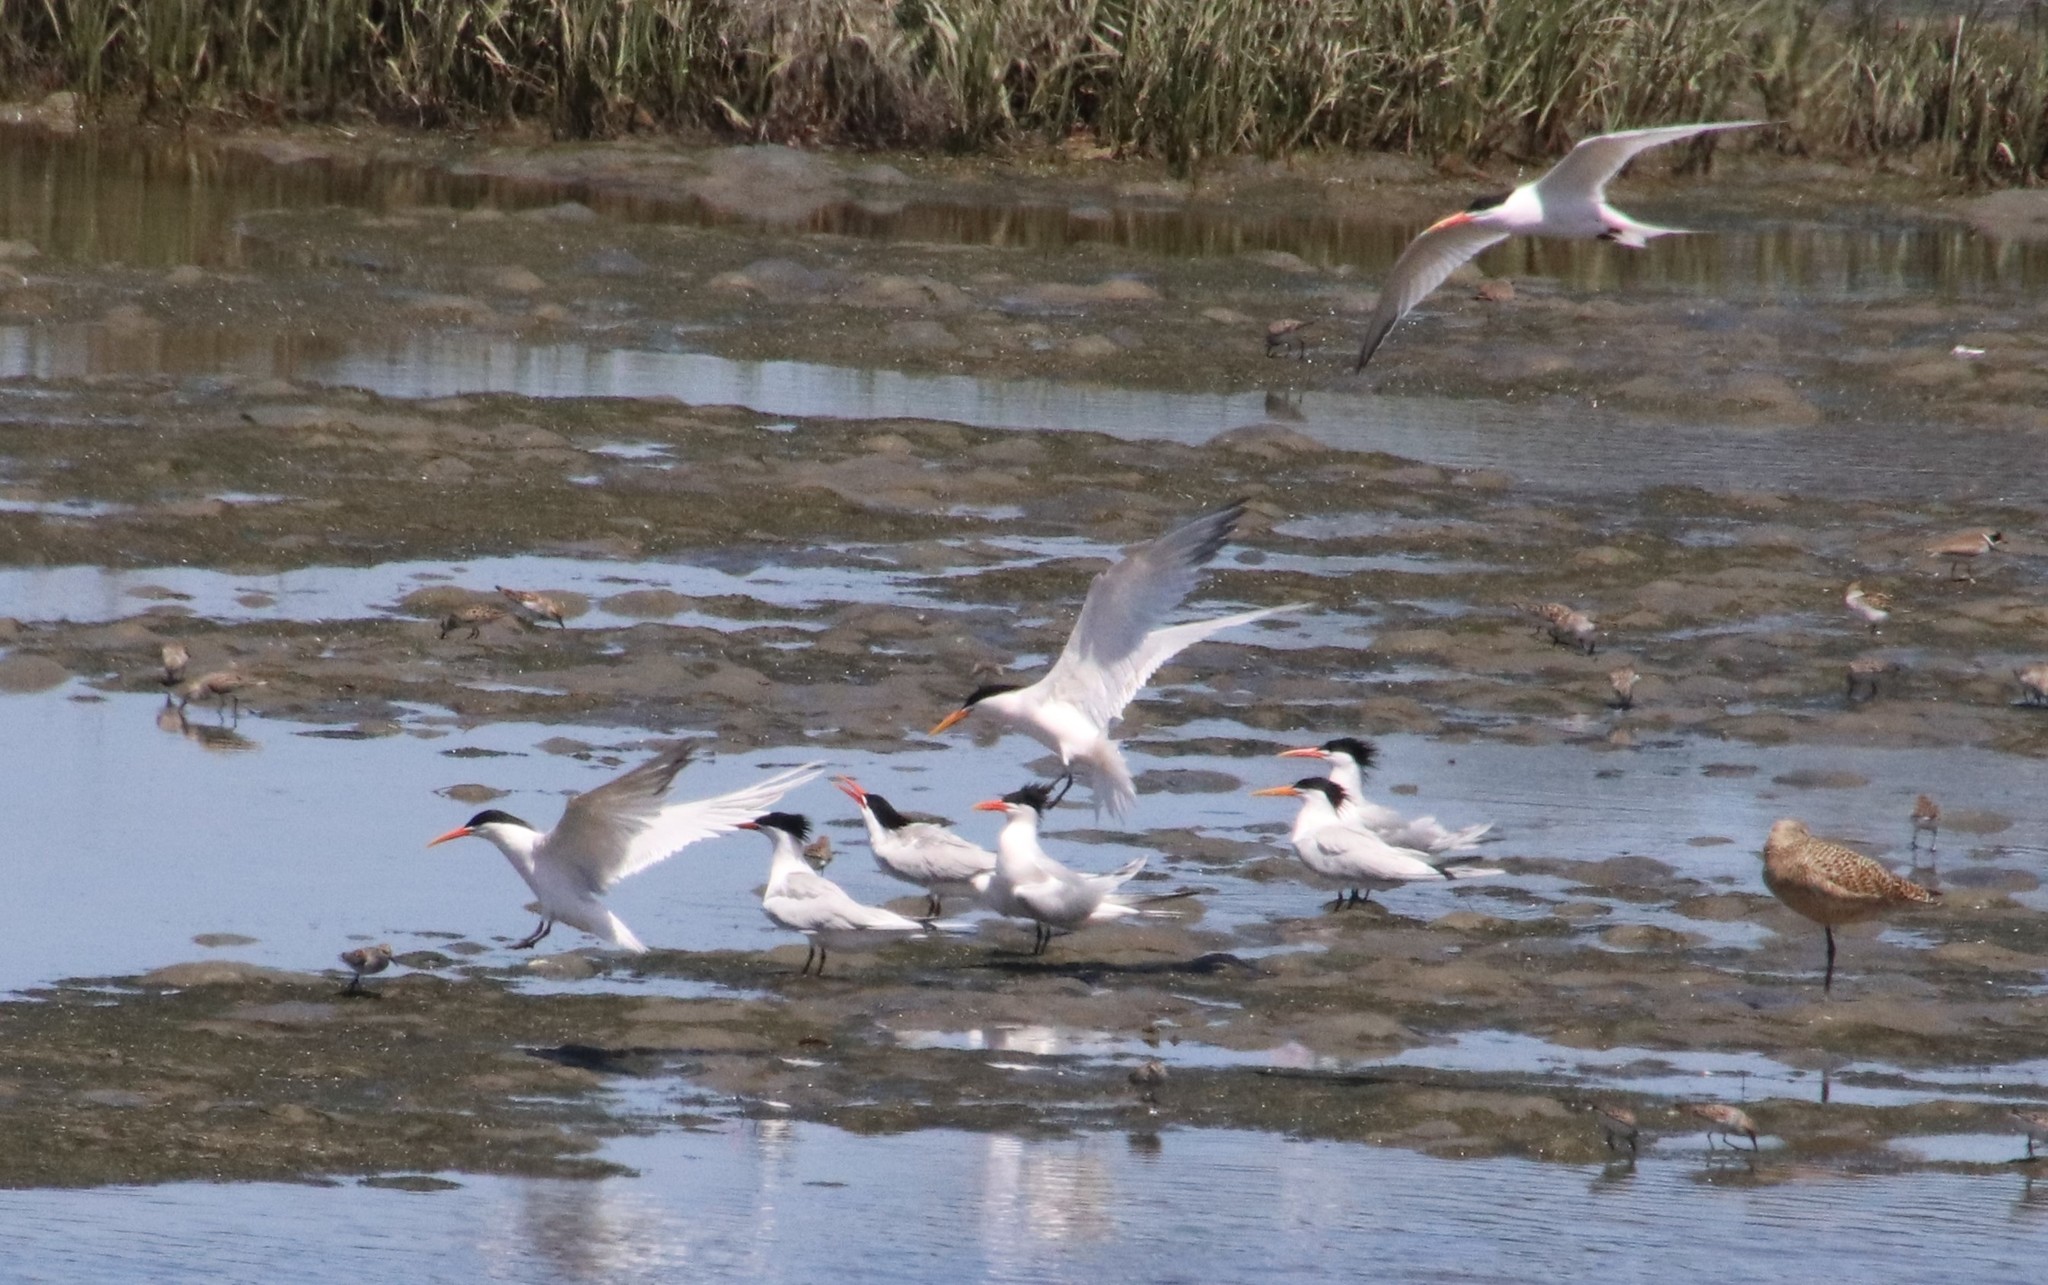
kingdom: Animalia
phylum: Chordata
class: Aves
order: Charadriiformes
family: Laridae
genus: Thalasseus
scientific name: Thalasseus elegans
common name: Elegant tern
